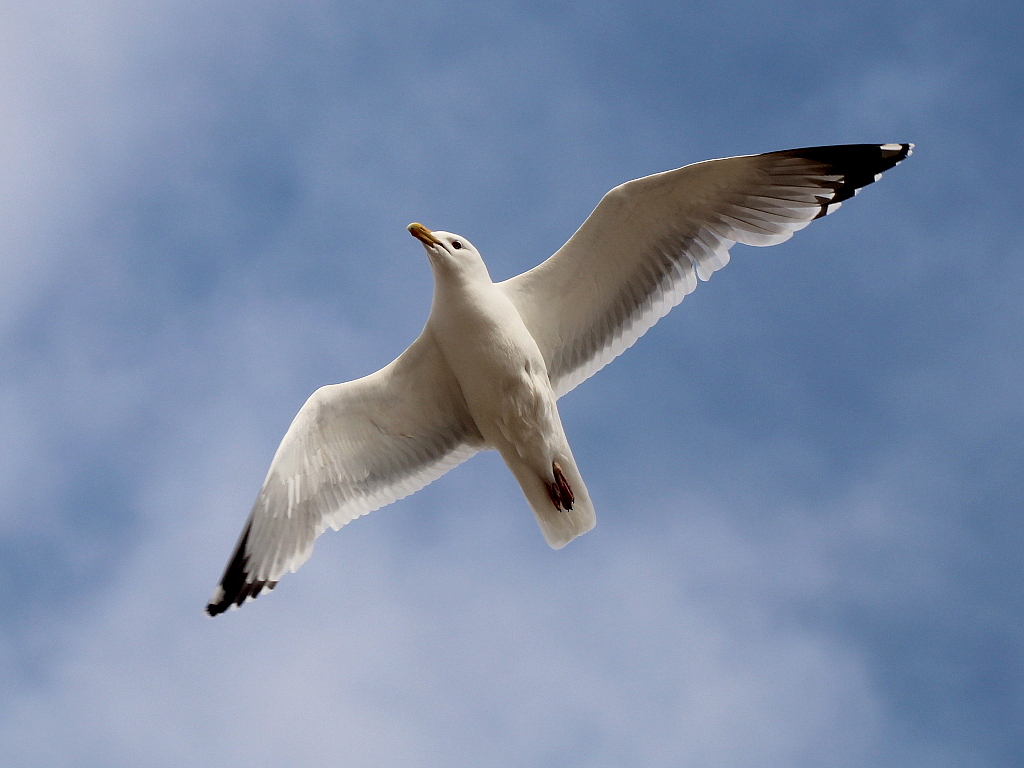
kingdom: Animalia
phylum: Chordata
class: Aves
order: Charadriiformes
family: Laridae
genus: Larus
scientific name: Larus fuscus
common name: Lesser black-backed gull
